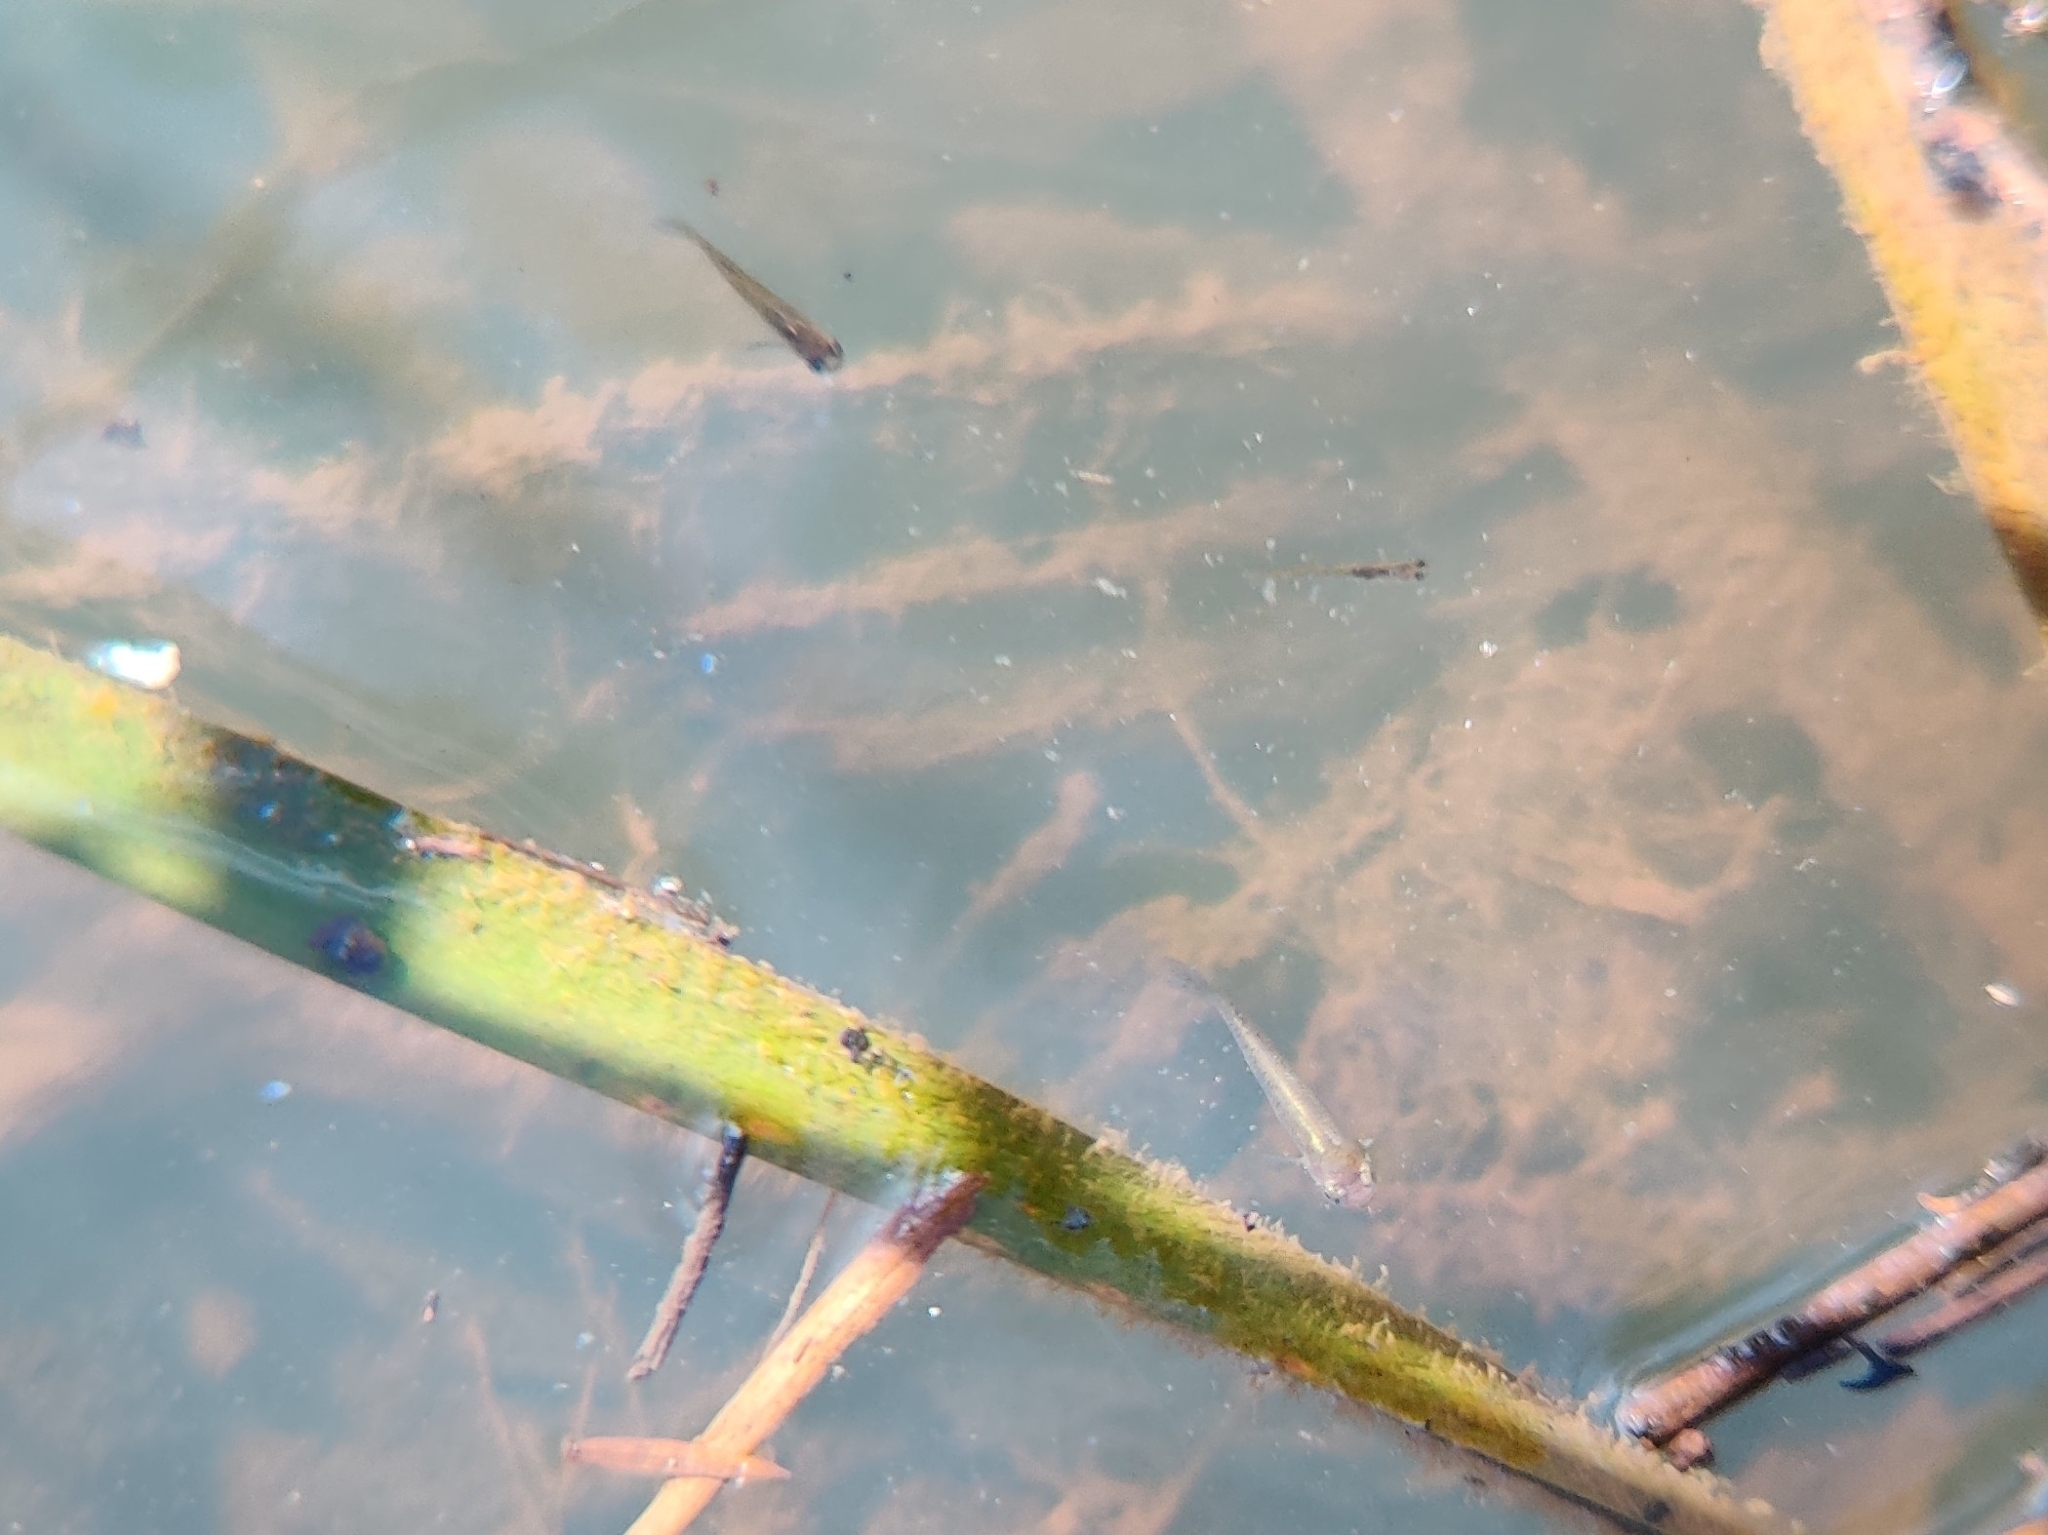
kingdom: Animalia
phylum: Chordata
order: Cyprinodontiformes
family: Poeciliidae
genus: Gambusia
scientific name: Gambusia holbrooki
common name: Eastern mosquitofish
